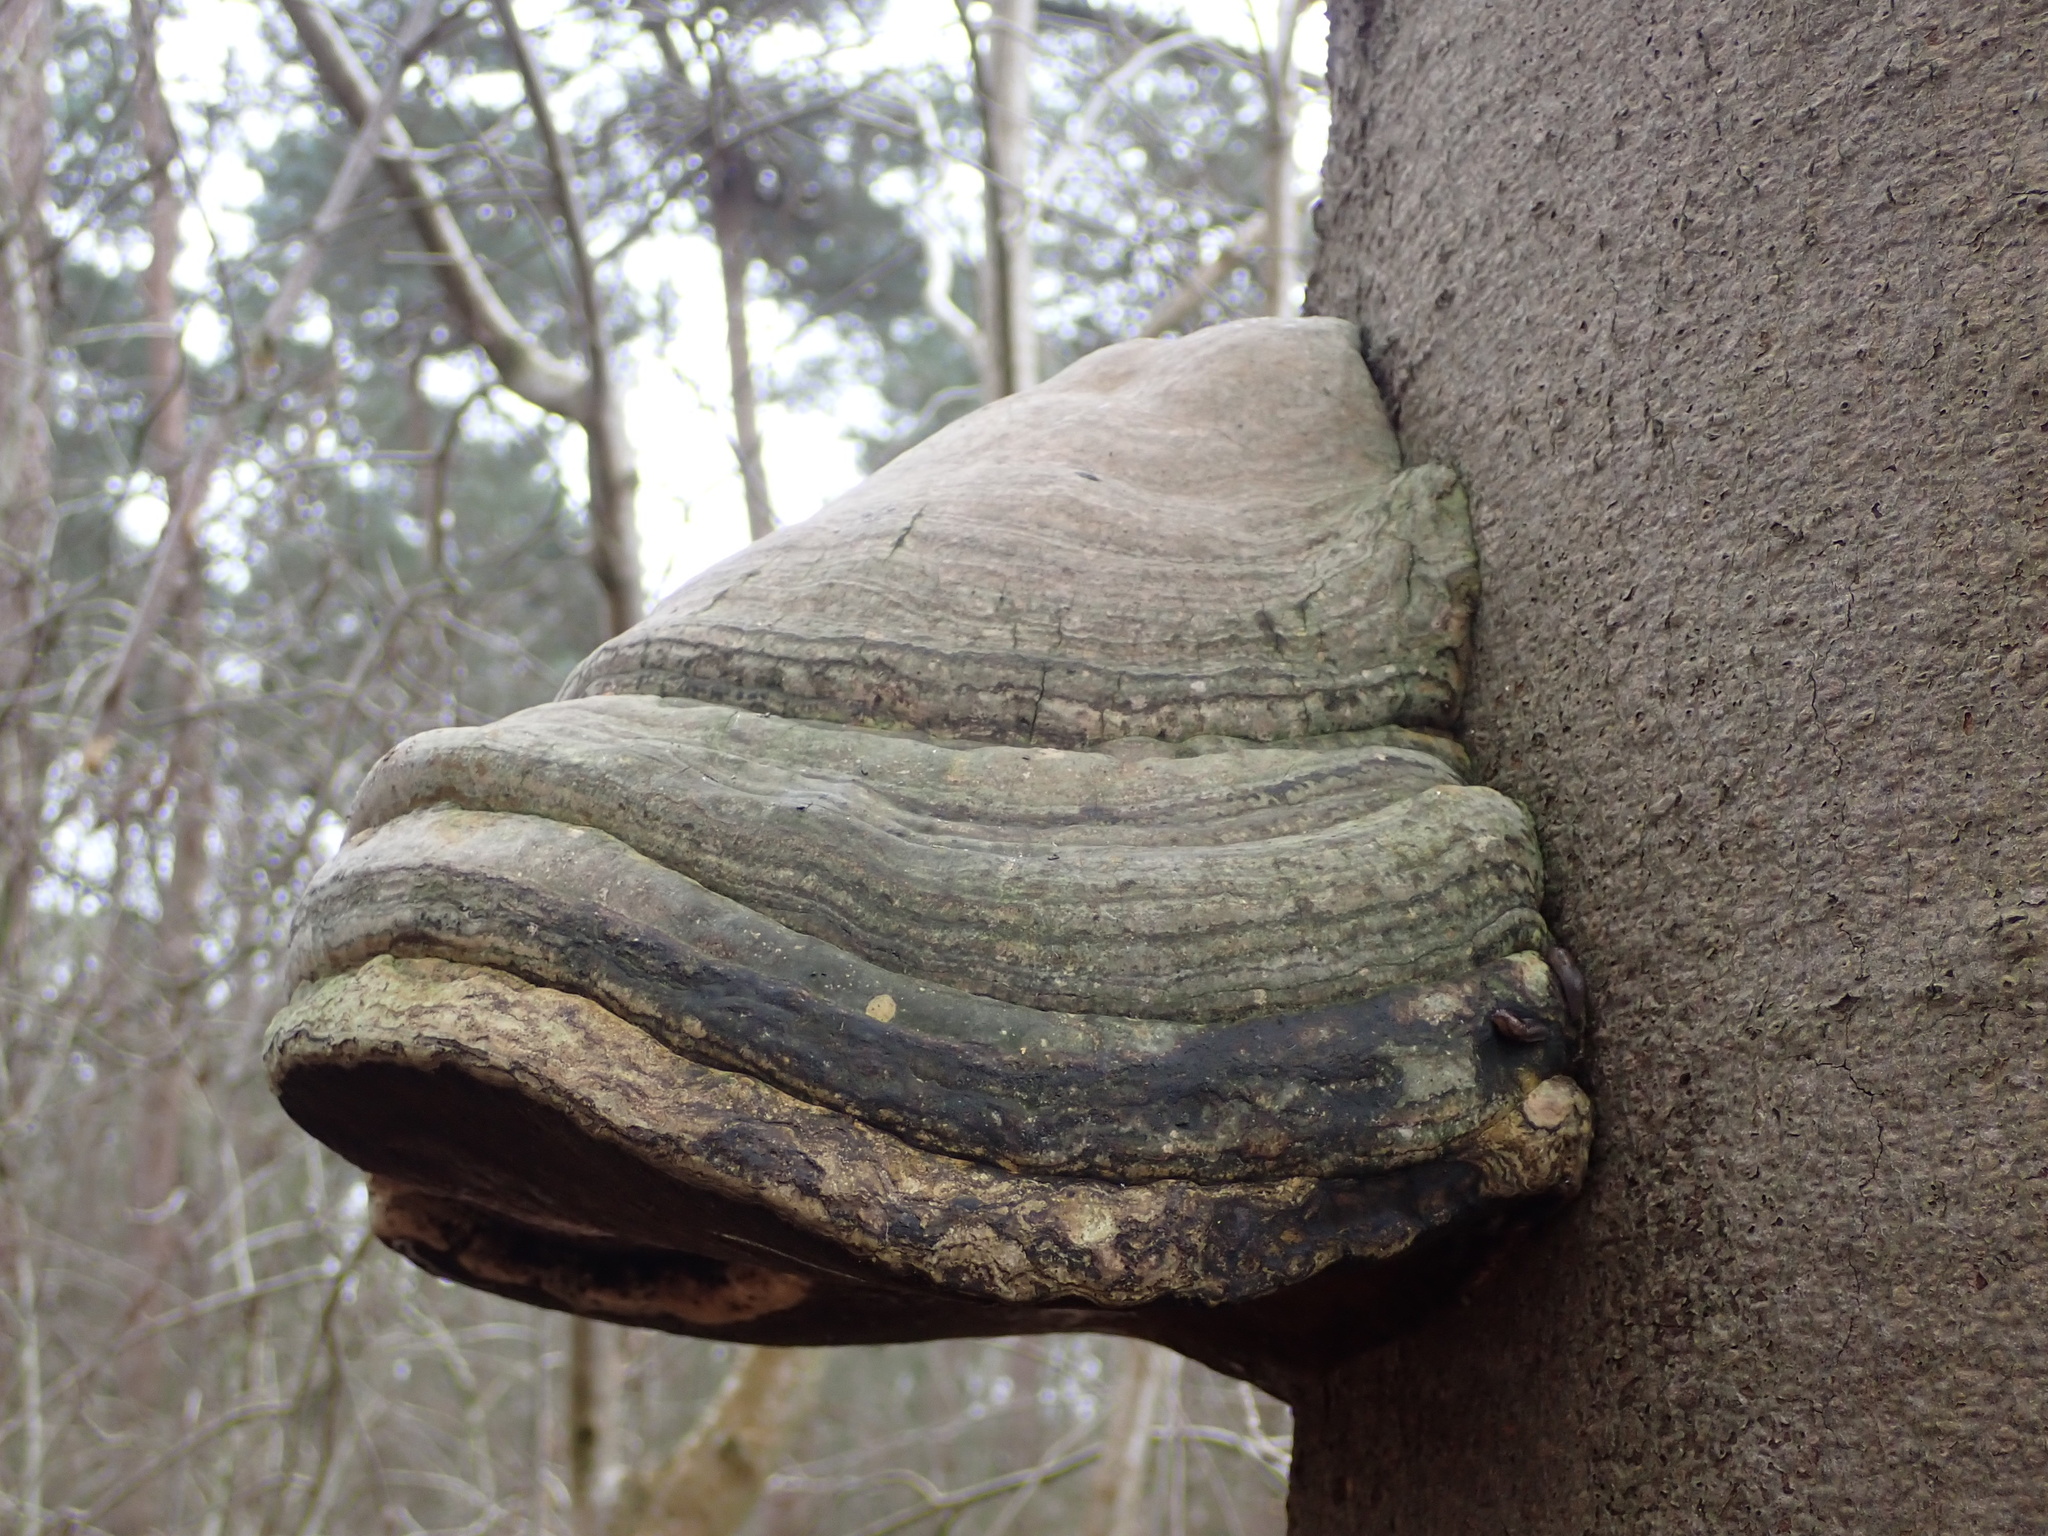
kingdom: Fungi
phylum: Basidiomycota
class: Agaricomycetes
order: Polyporales
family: Polyporaceae
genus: Fomes
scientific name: Fomes fomentarius
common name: Hoof fungus
